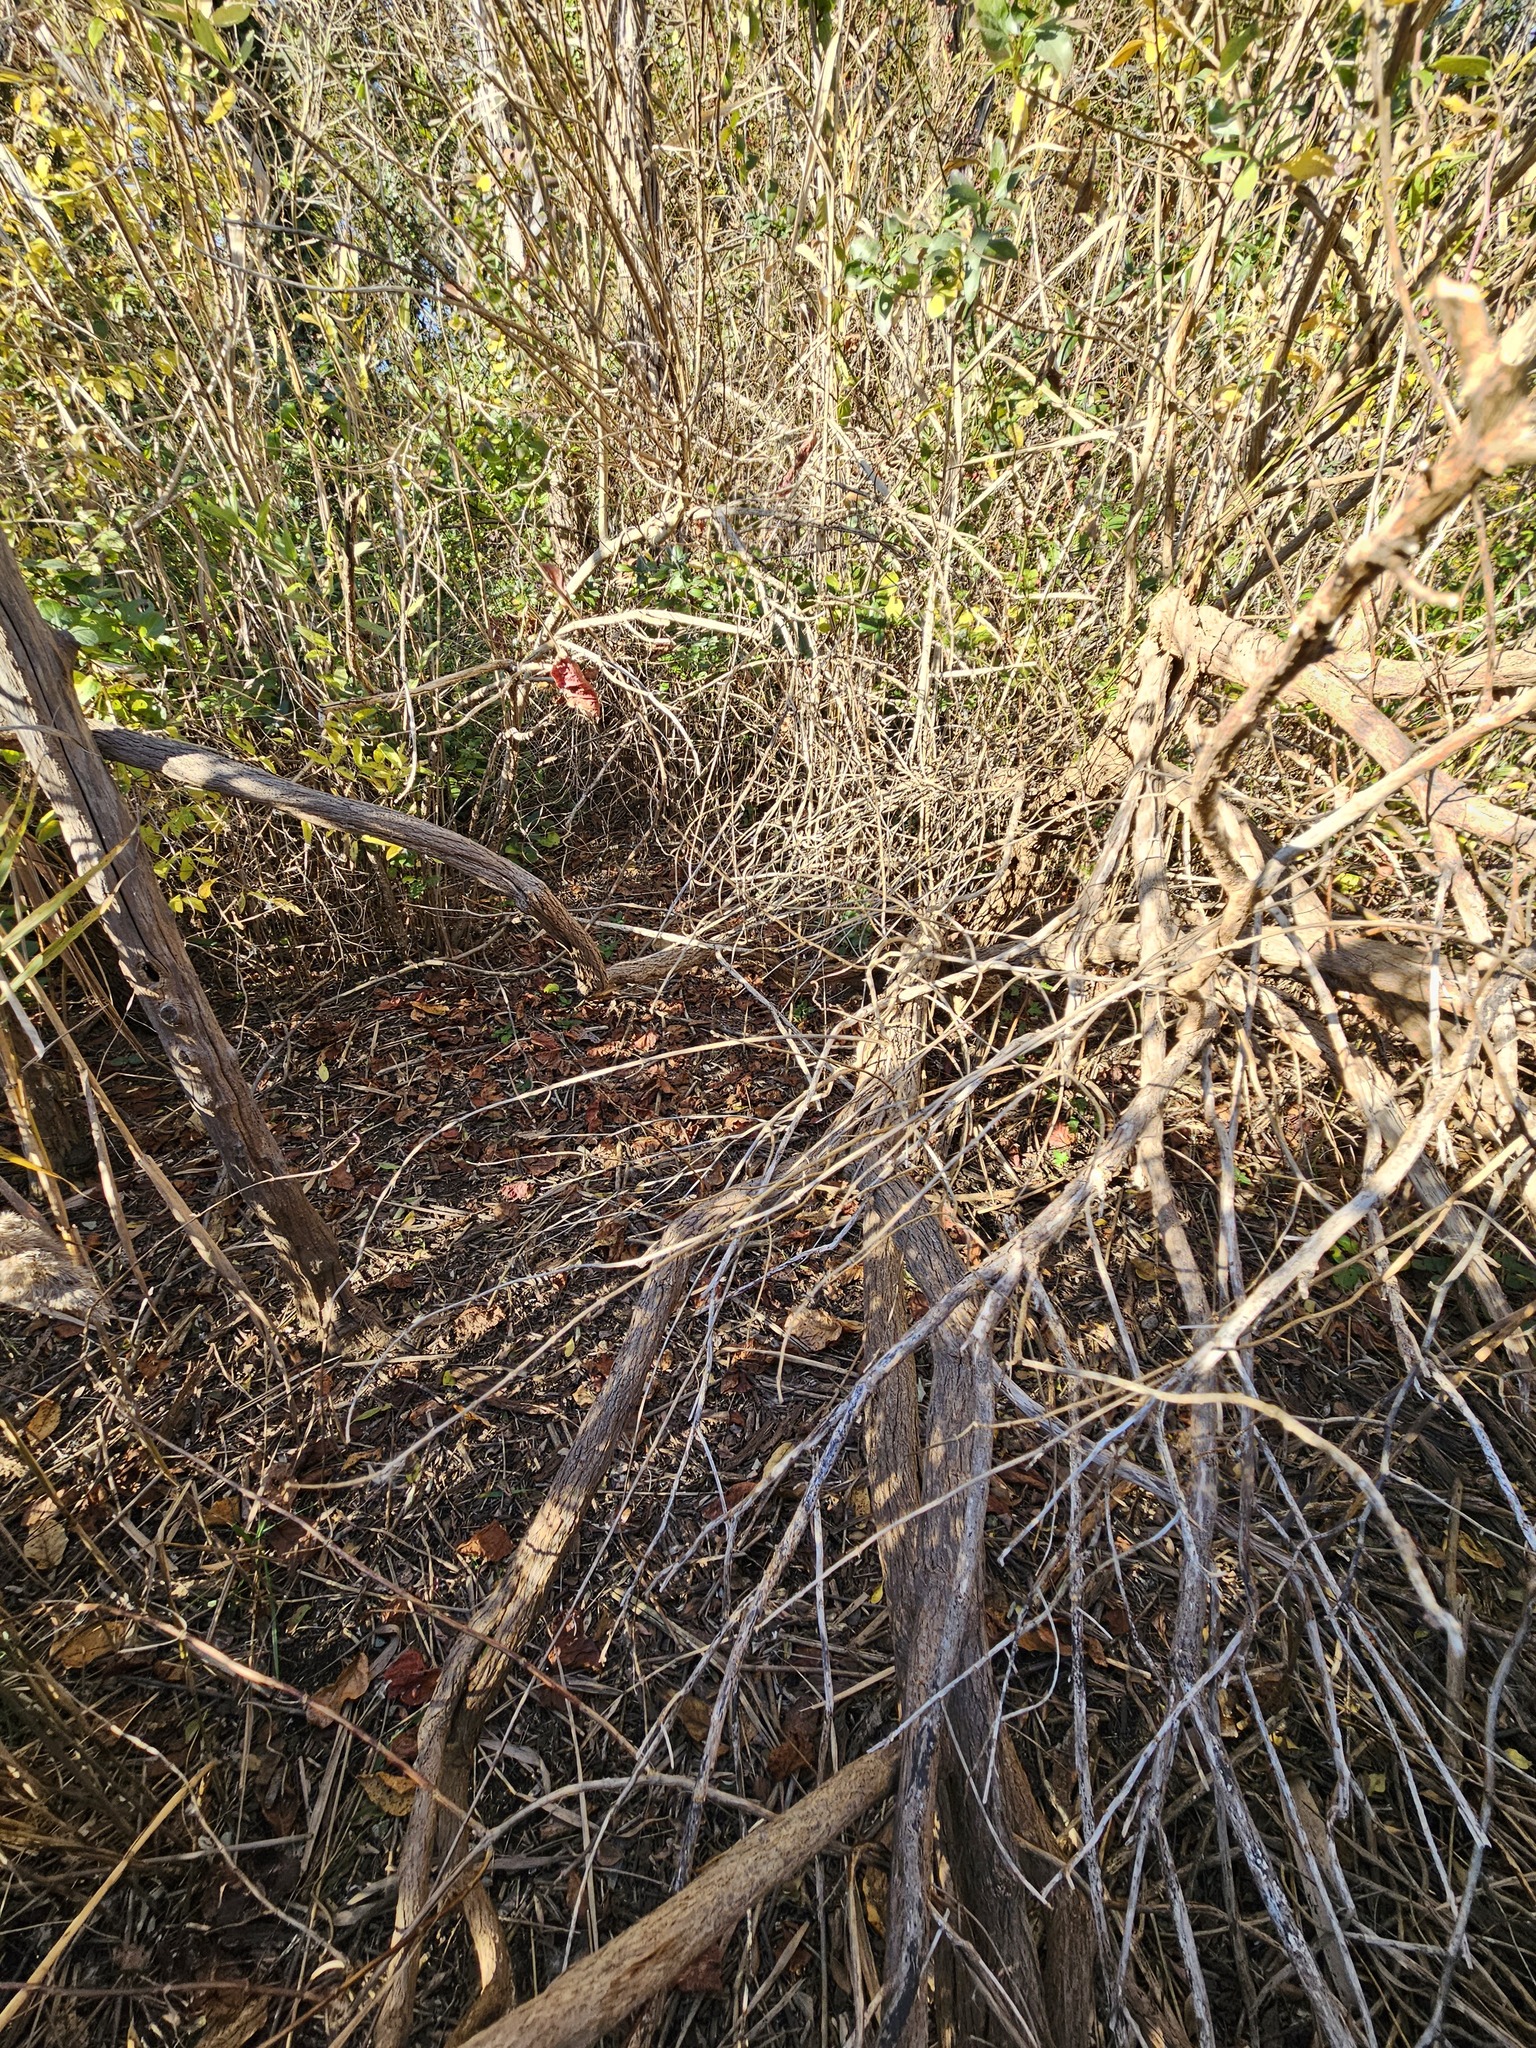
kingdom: Plantae
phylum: Tracheophyta
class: Magnoliopsida
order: Asterales
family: Asteraceae
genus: Baccharis
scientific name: Baccharis halimifolia
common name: Eastern baccharis
